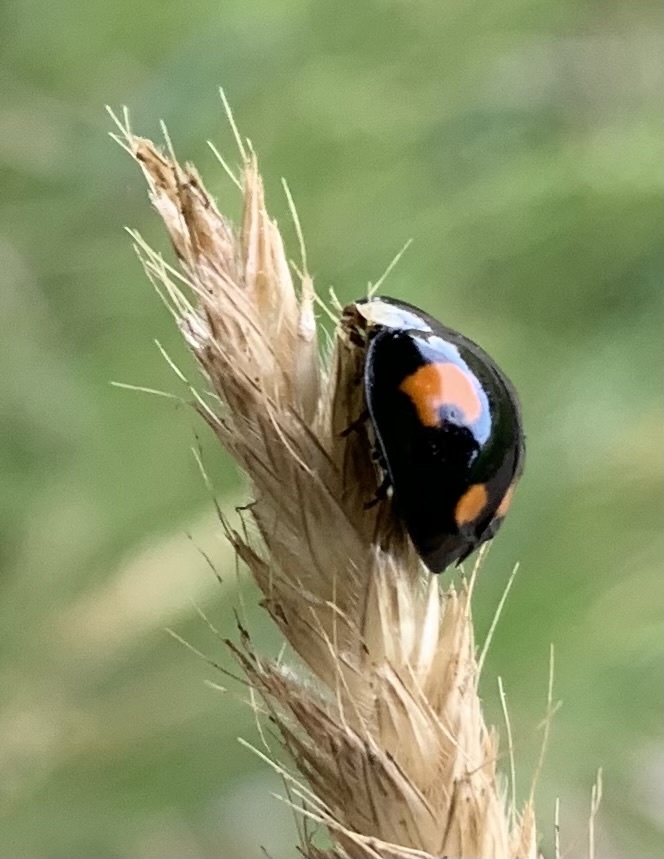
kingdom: Animalia
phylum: Arthropoda
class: Insecta
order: Coleoptera
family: Coccinellidae
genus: Harmonia
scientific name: Harmonia axyridis
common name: Harlequin ladybird
